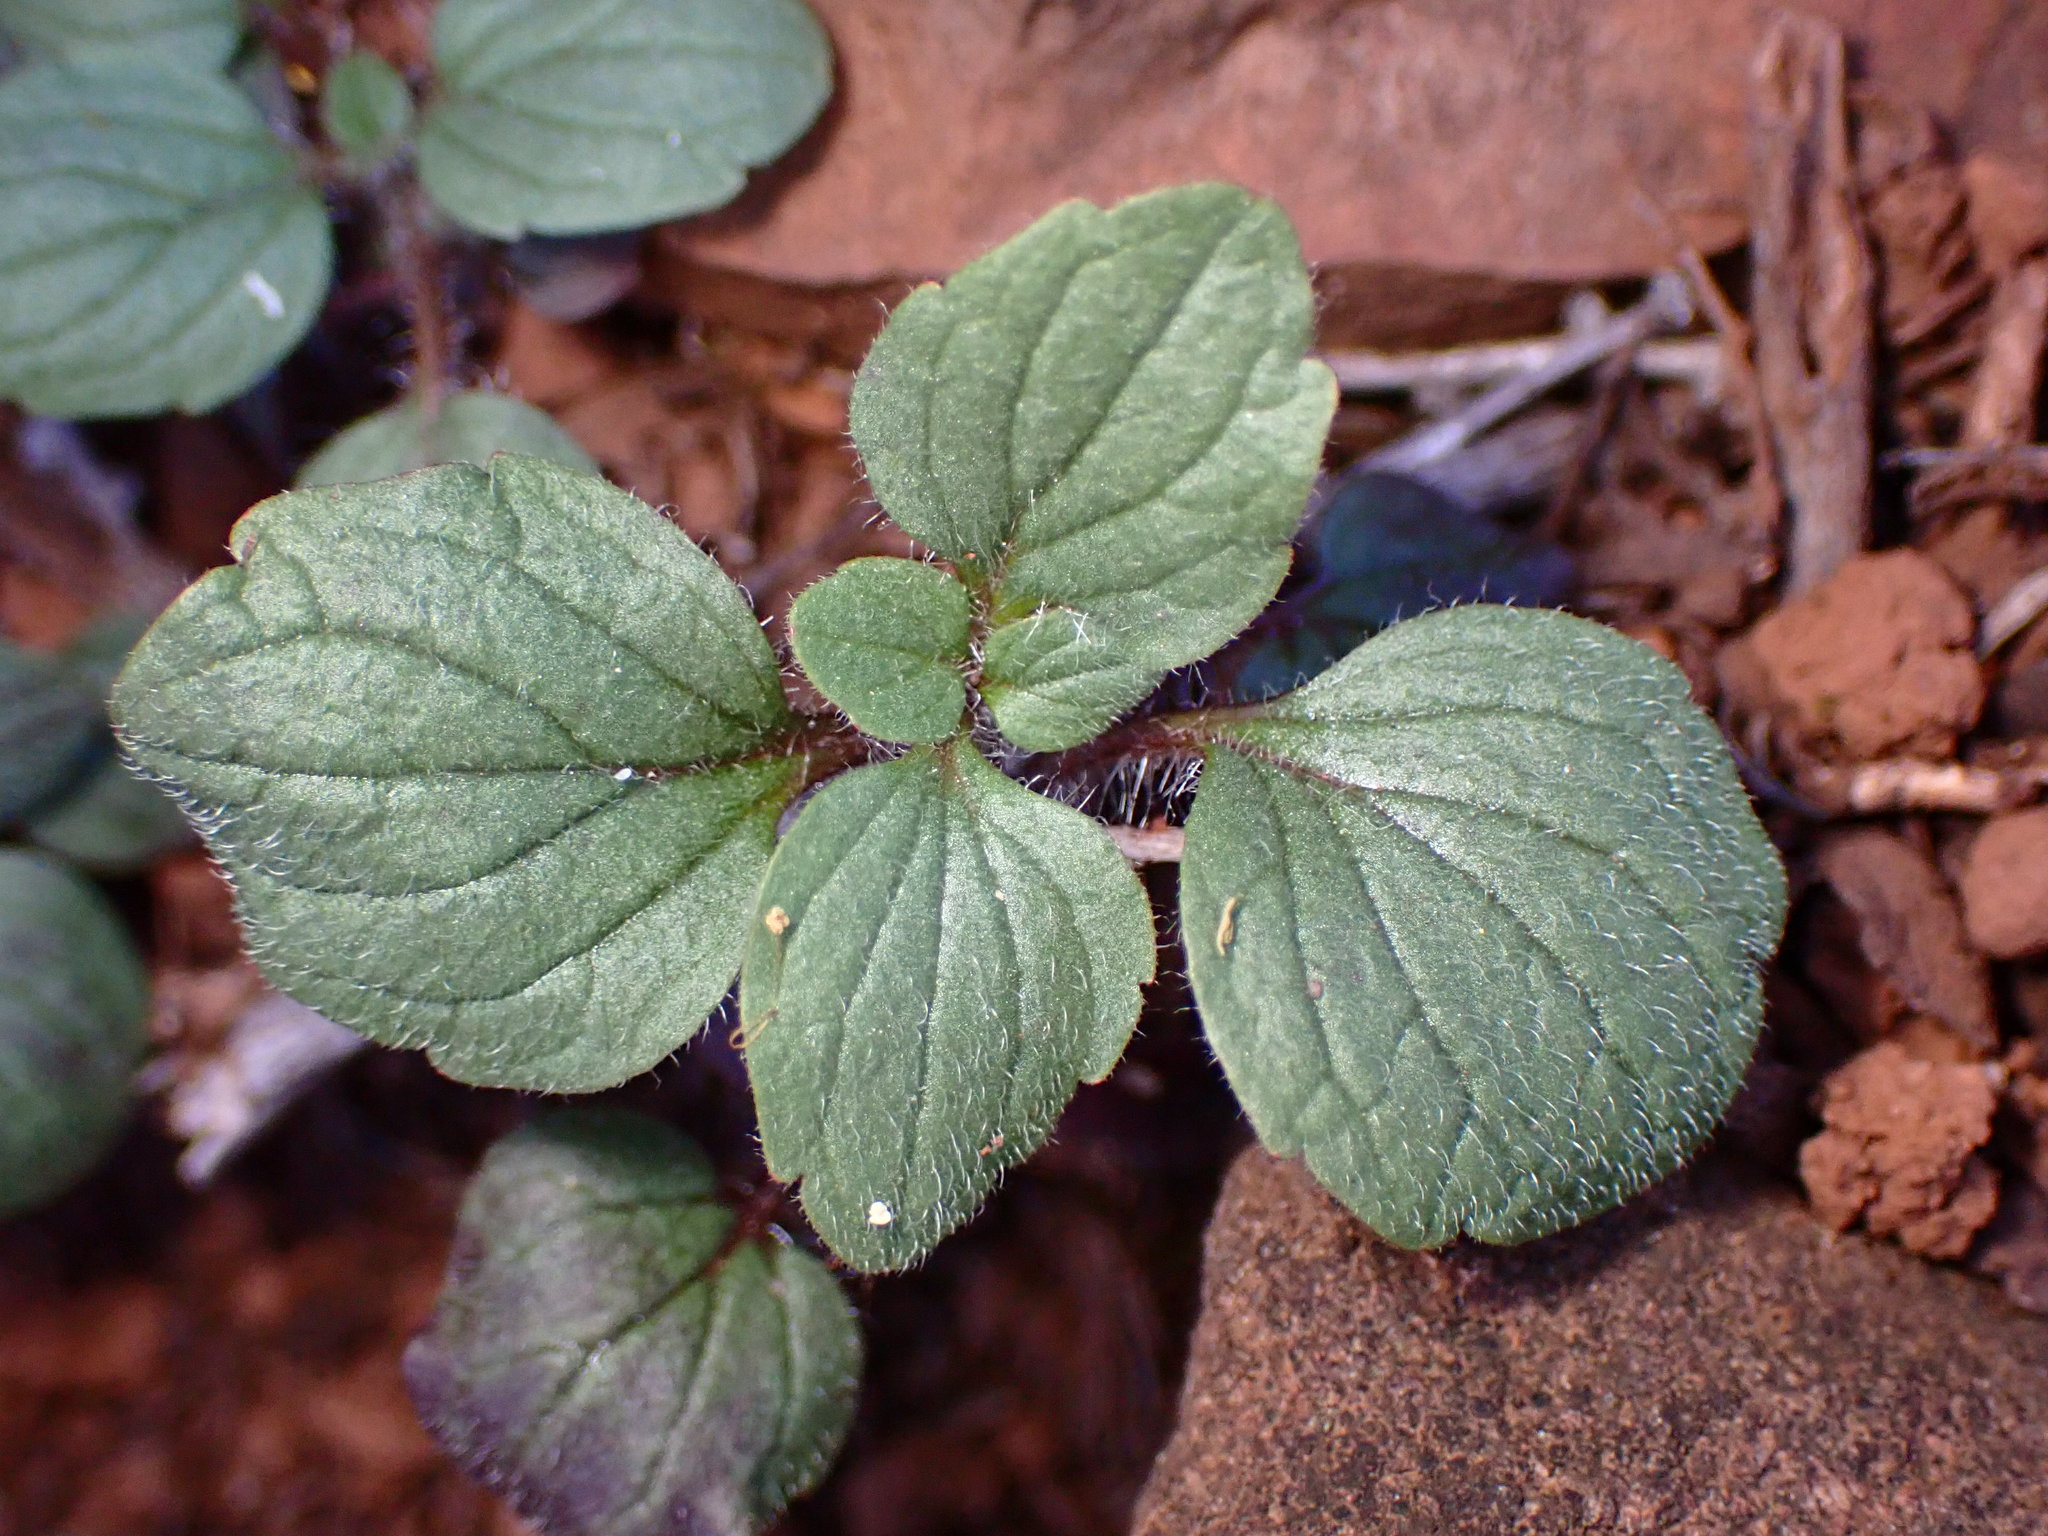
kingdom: Plantae
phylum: Tracheophyta
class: Magnoliopsida
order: Lamiales
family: Lamiaceae
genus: Scutellaria
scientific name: Scutellaria tuberosa
